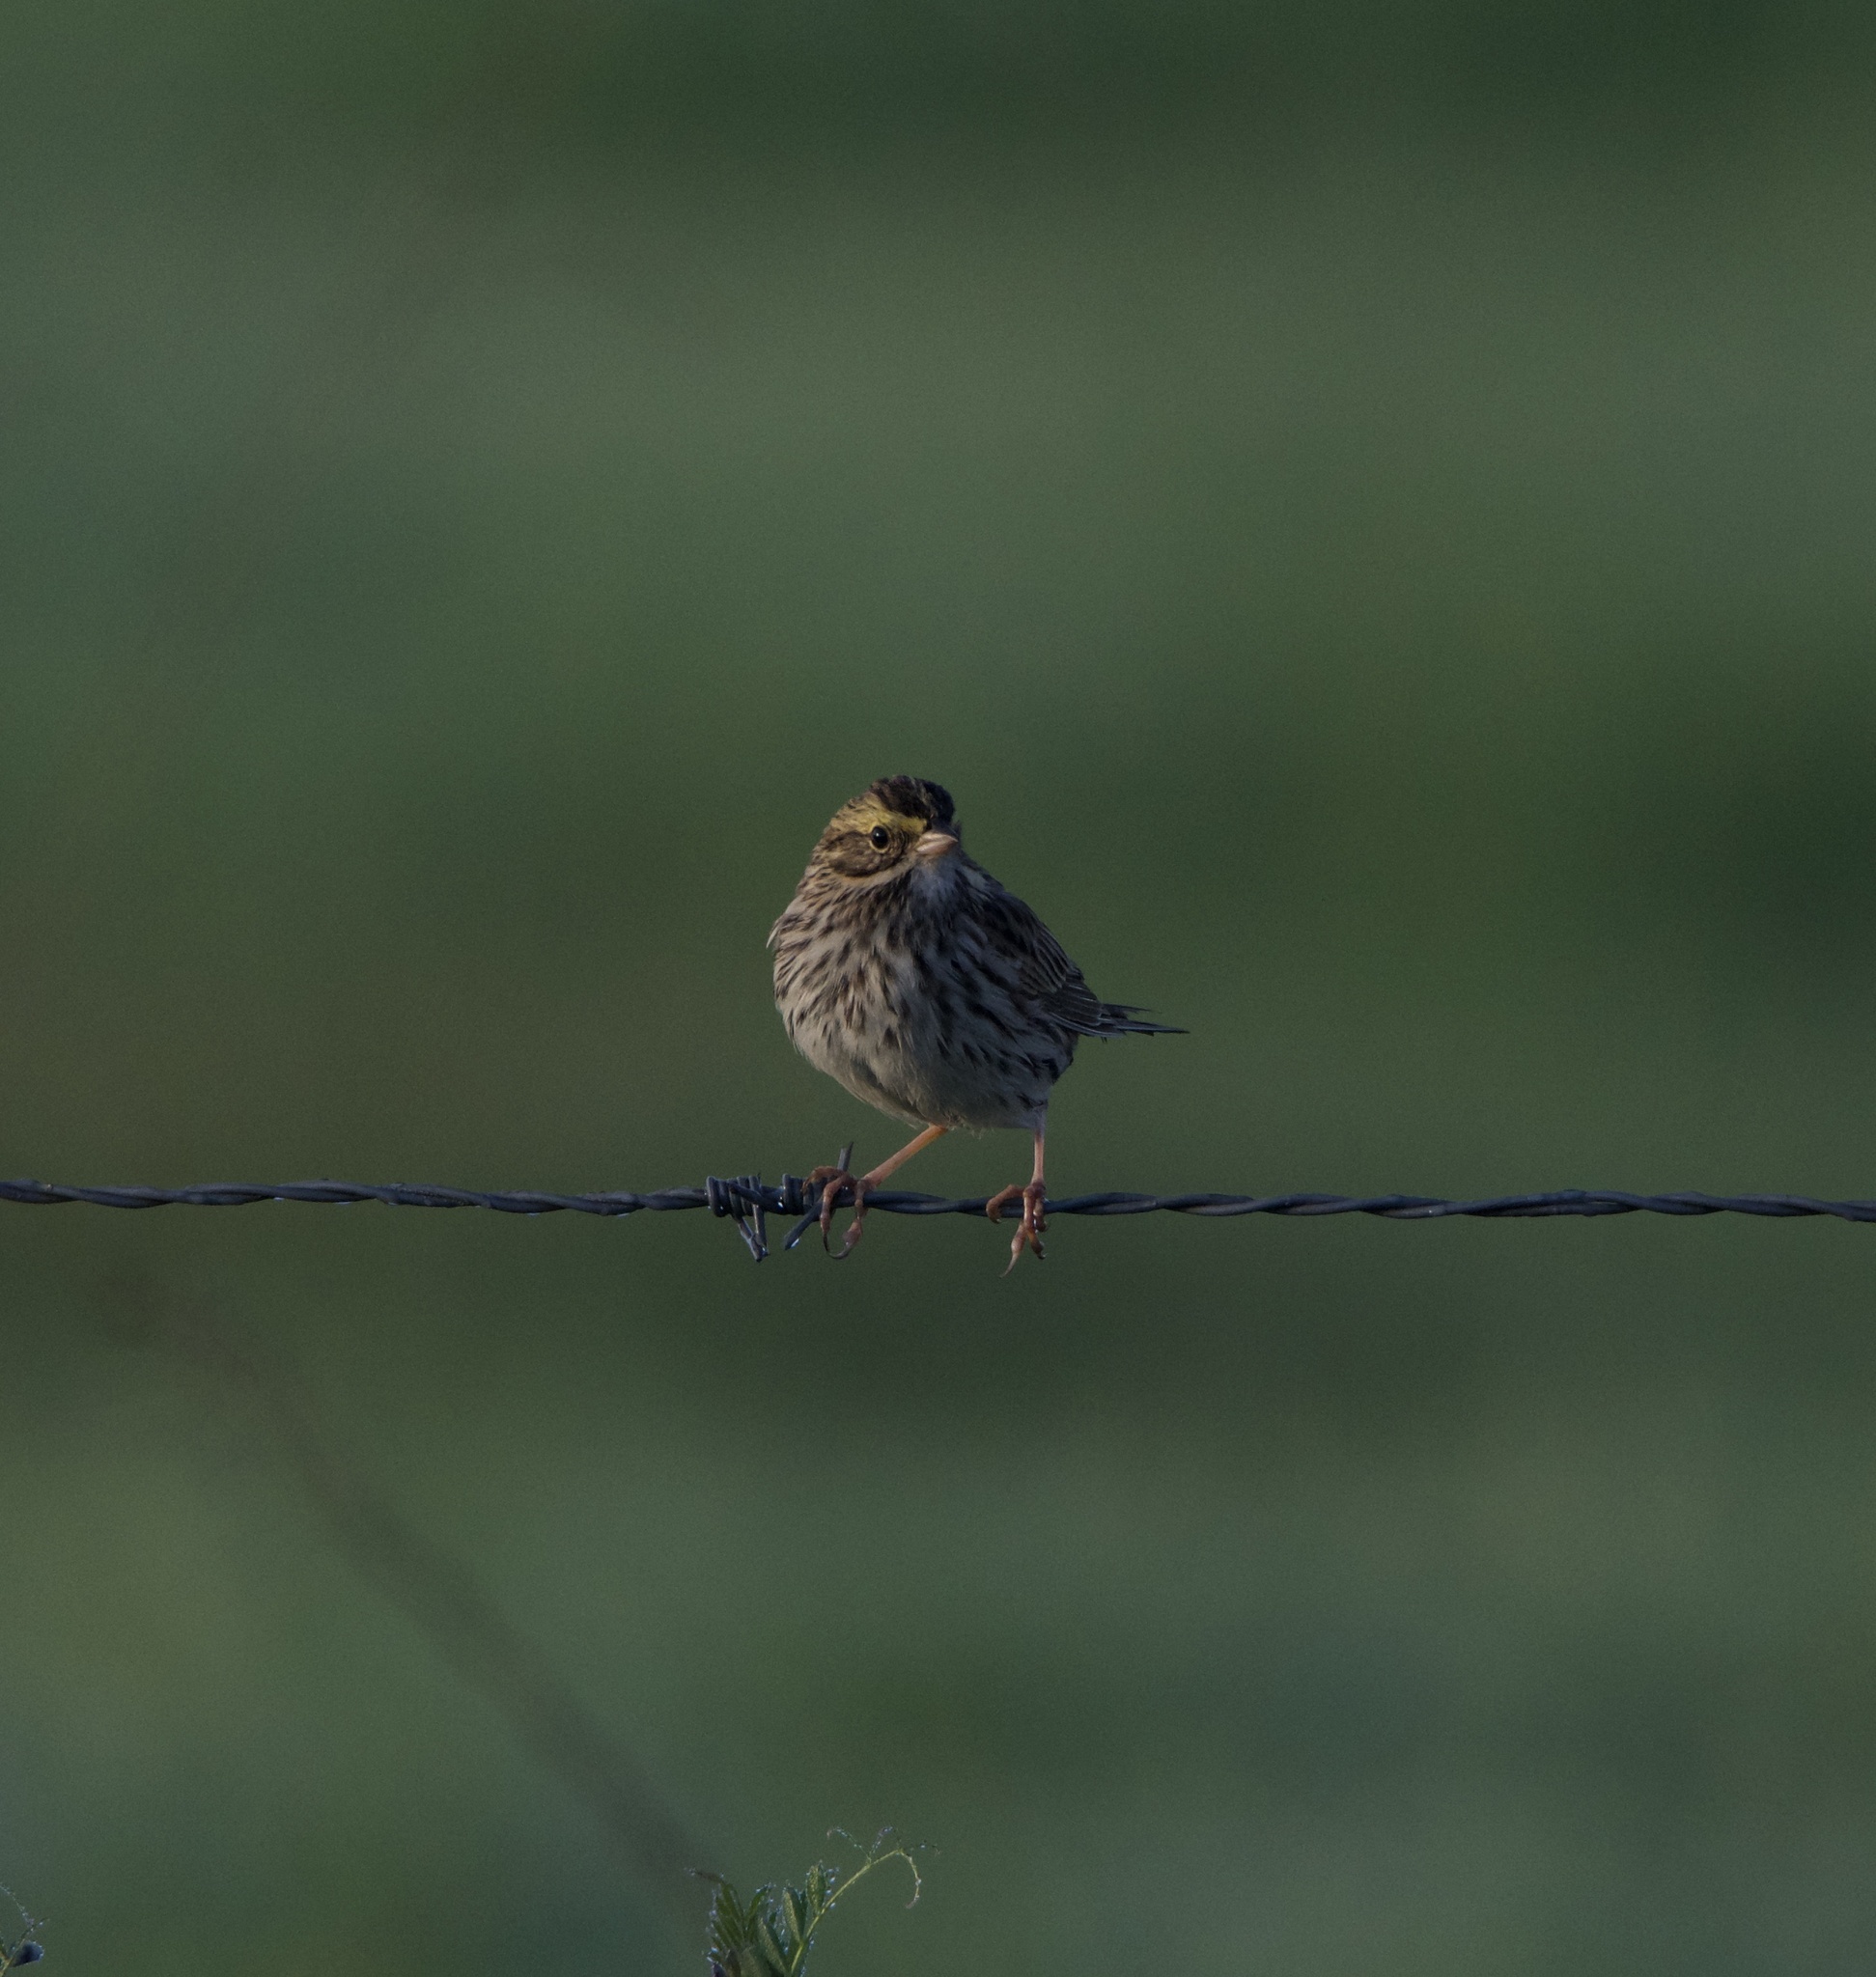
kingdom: Animalia
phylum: Chordata
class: Aves
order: Passeriformes
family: Passerellidae
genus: Passerculus
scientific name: Passerculus sandwichensis
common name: Savannah sparrow
